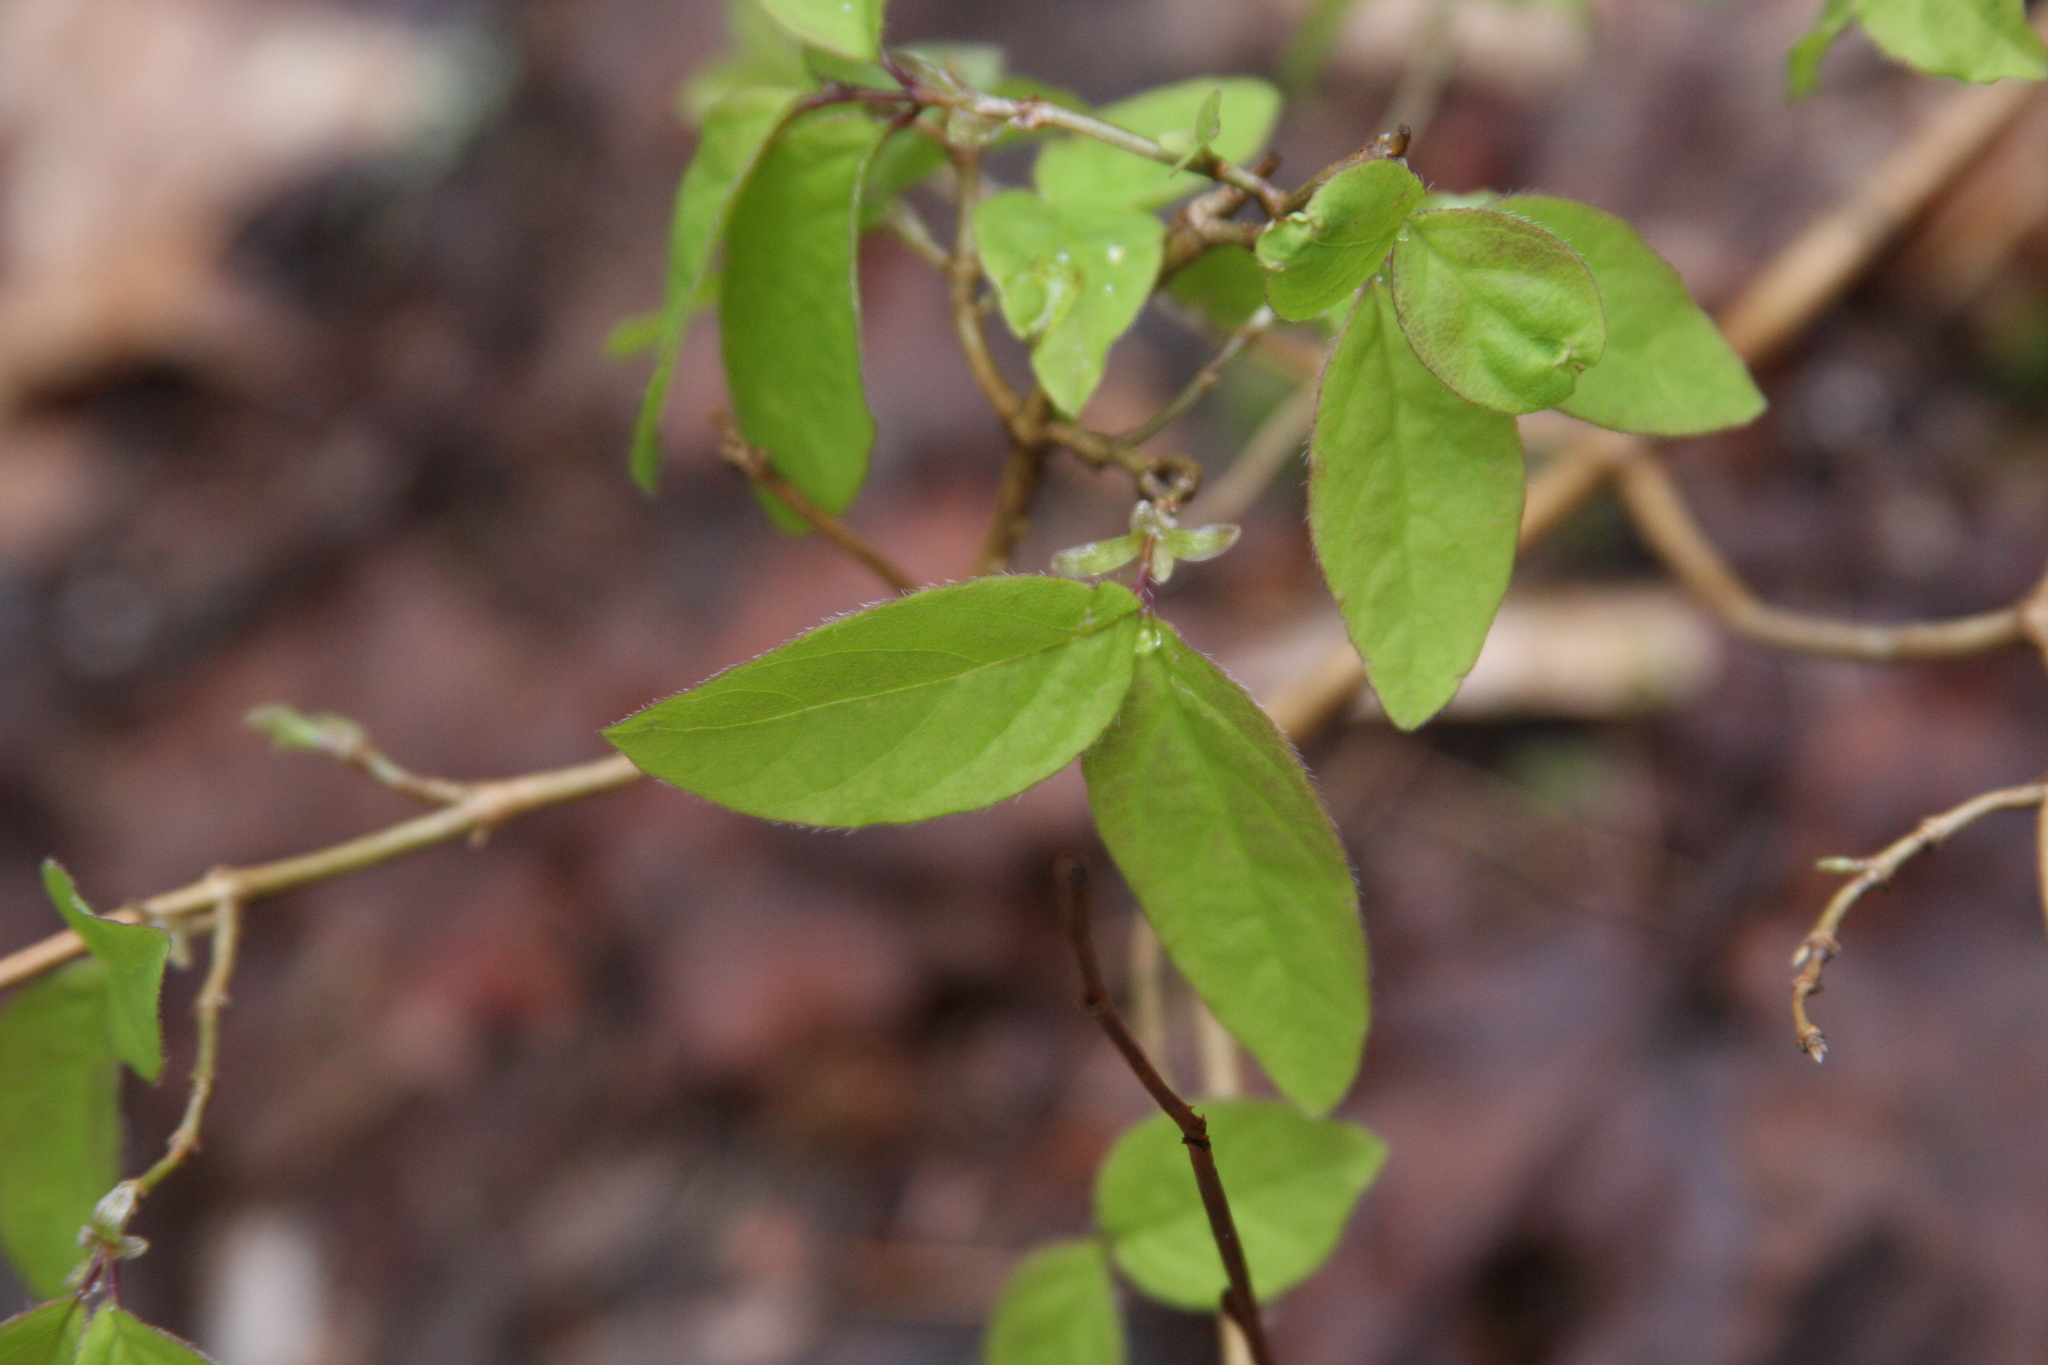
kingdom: Plantae
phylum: Tracheophyta
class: Magnoliopsida
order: Dipsacales
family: Caprifoliaceae
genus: Lonicera
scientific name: Lonicera canadensis
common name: American fly-honeysuckle
